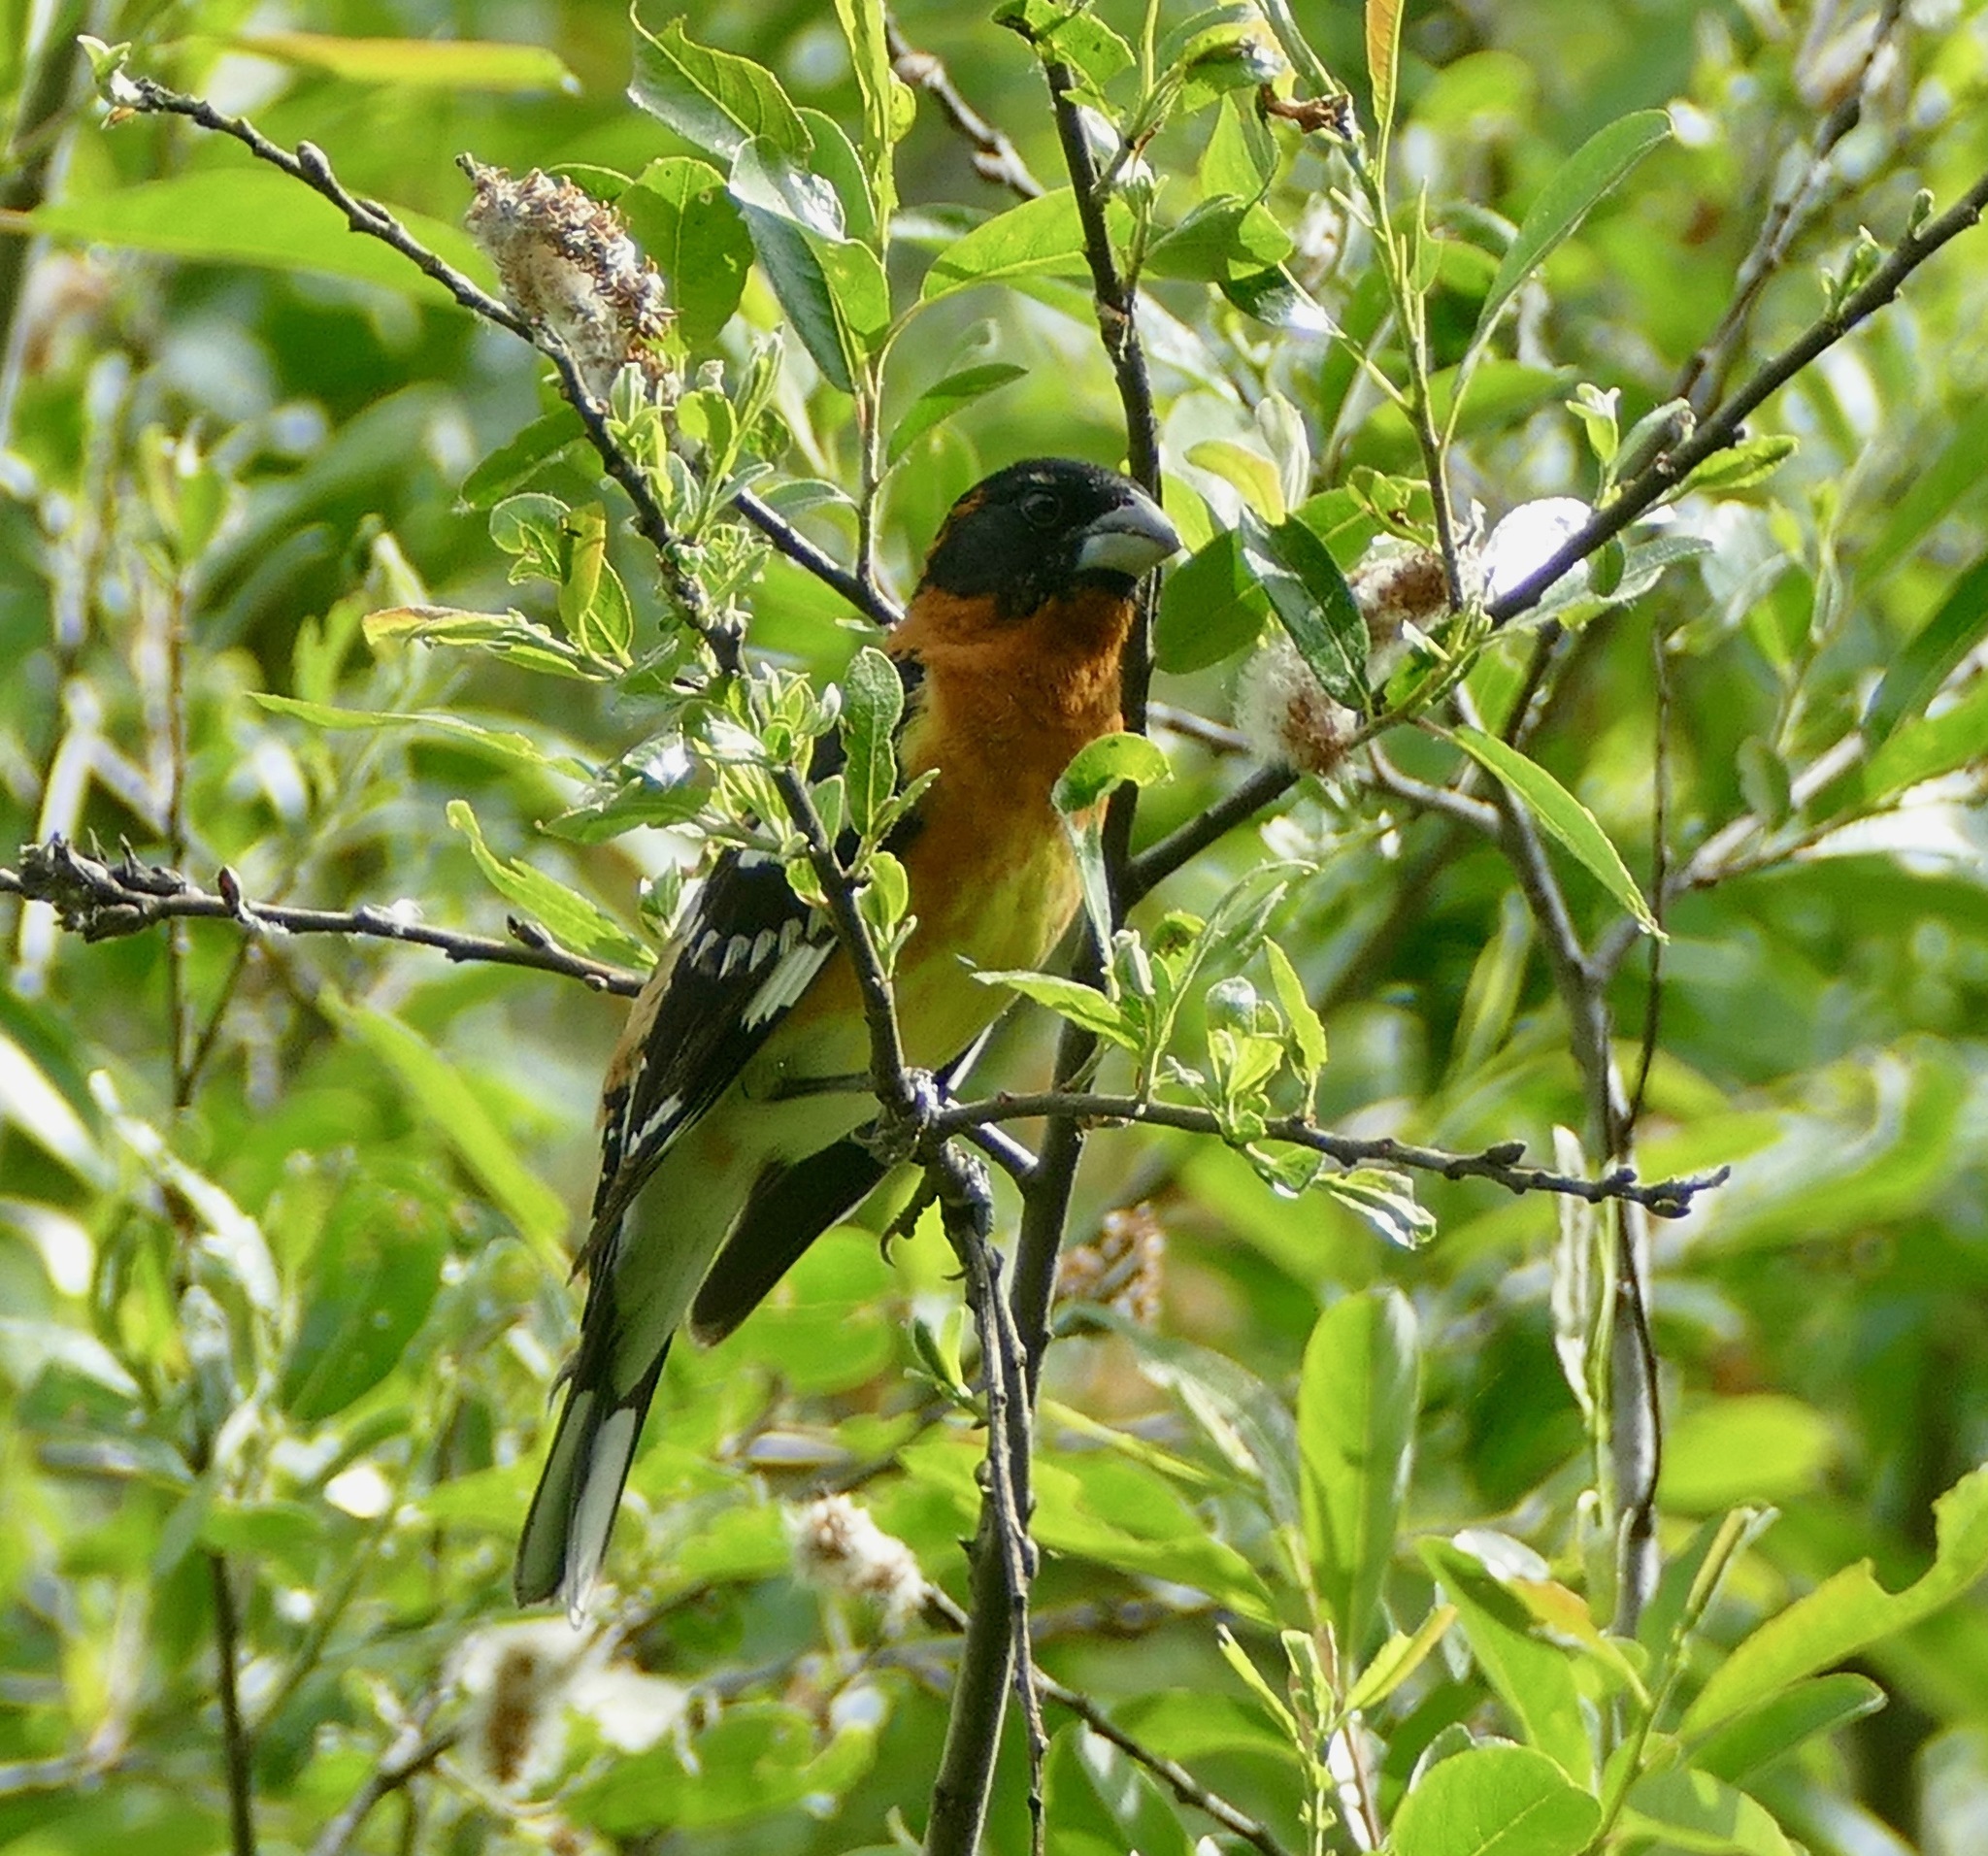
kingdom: Animalia
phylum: Chordata
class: Aves
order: Passeriformes
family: Cardinalidae
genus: Pheucticus
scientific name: Pheucticus melanocephalus
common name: Black-headed grosbeak
